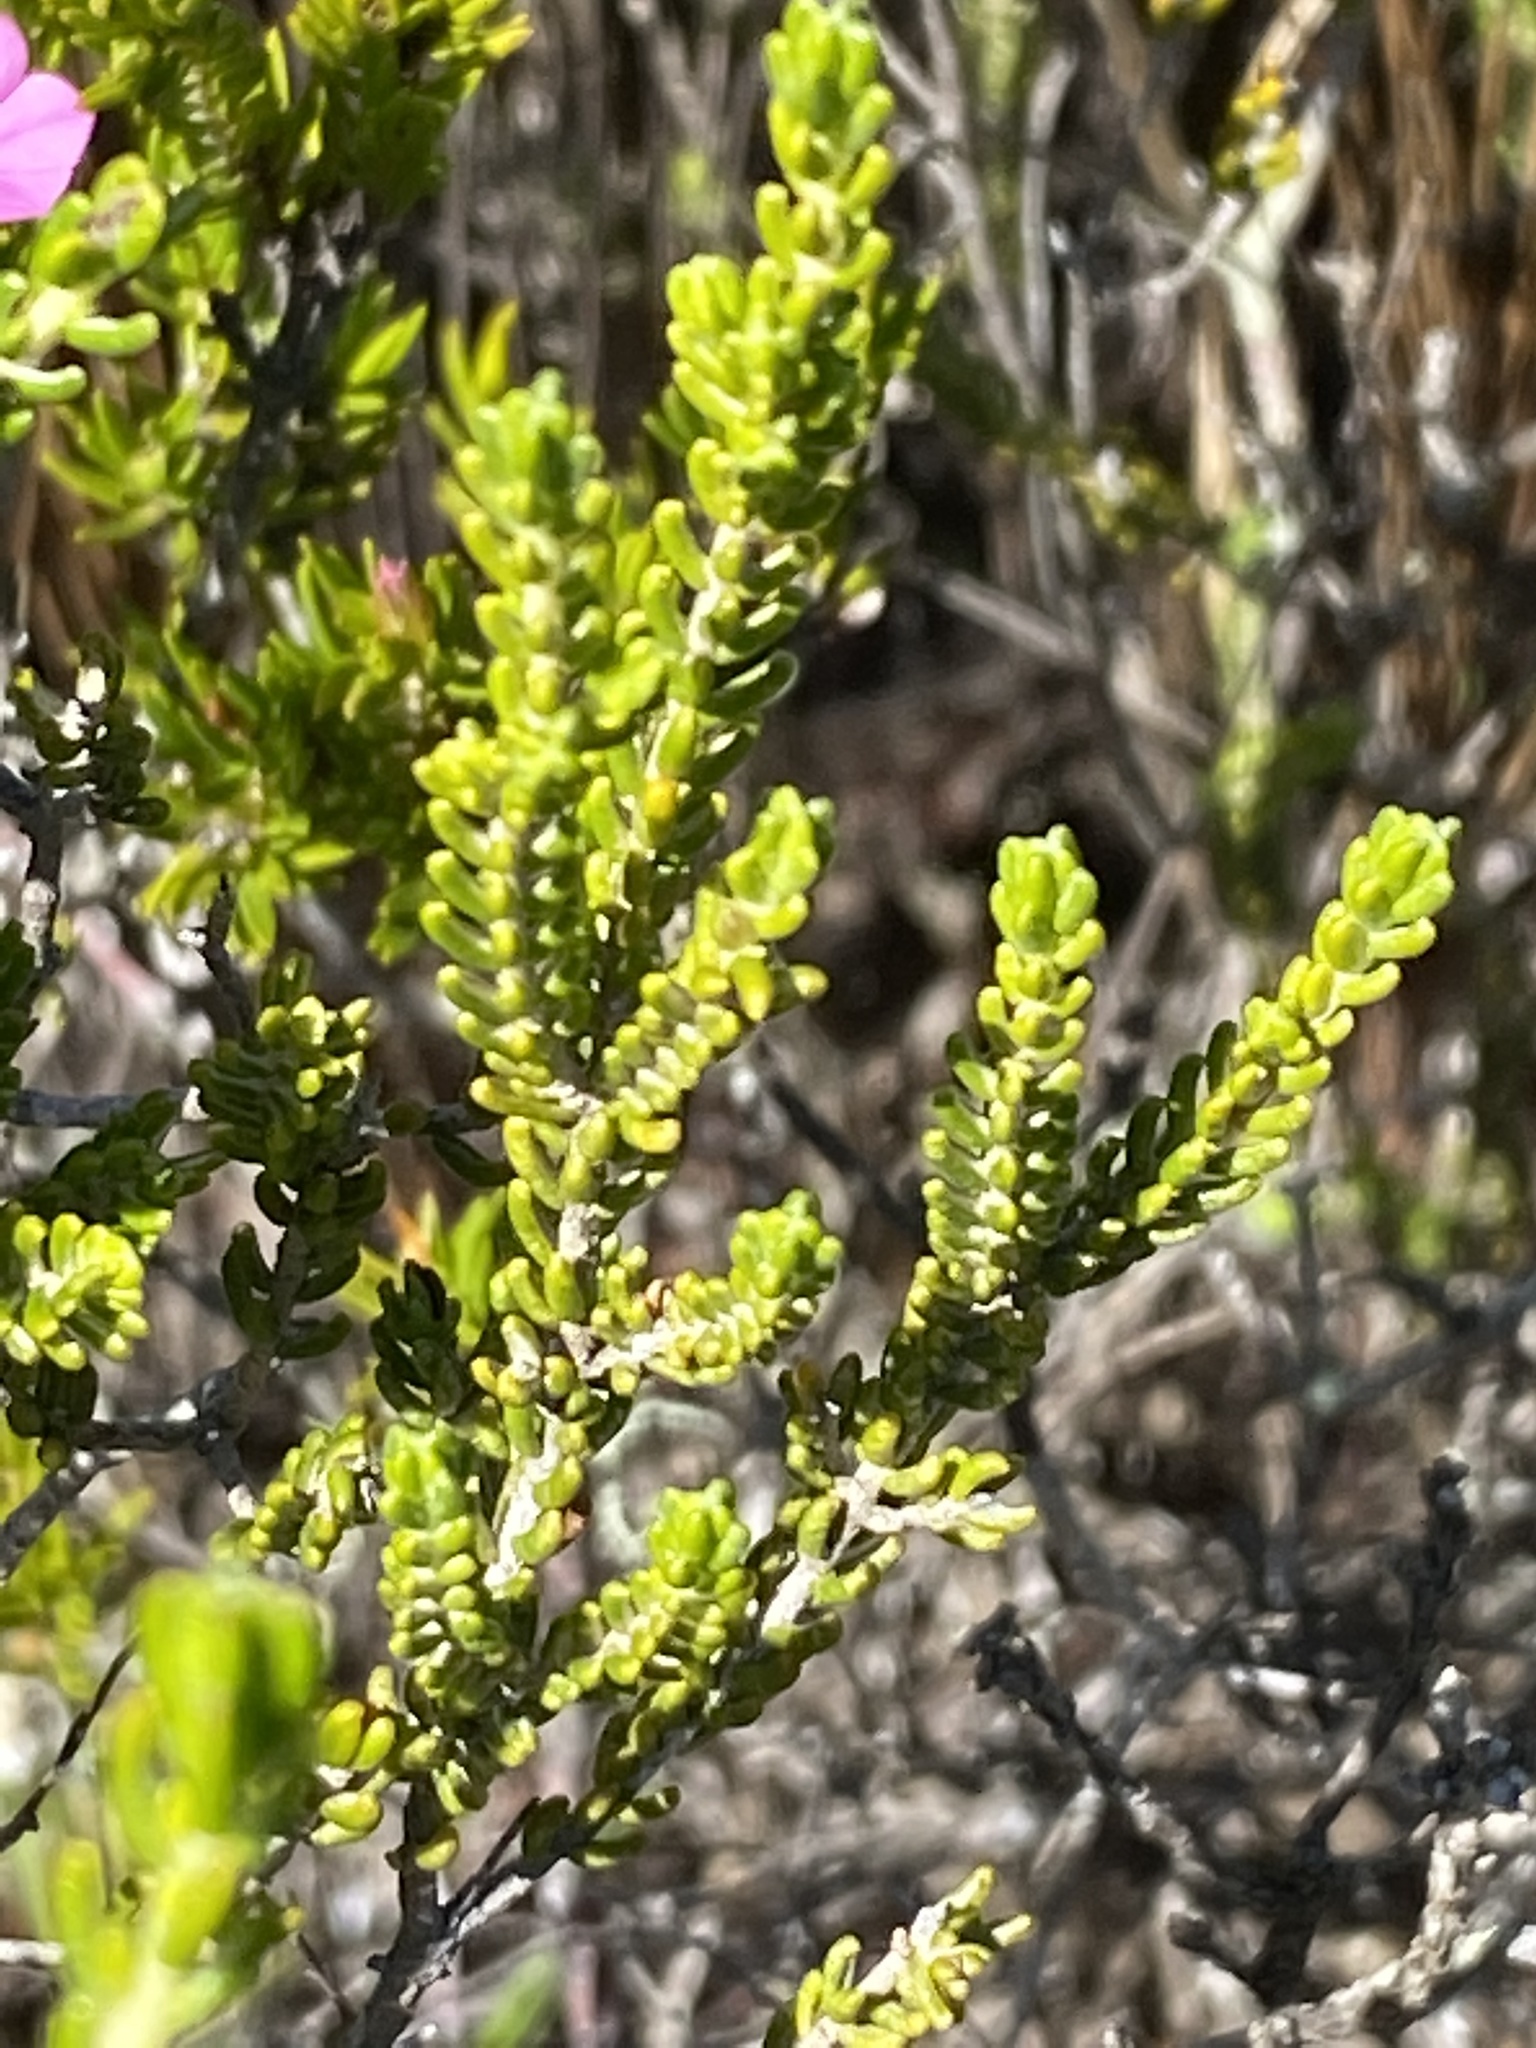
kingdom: Plantae
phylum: Tracheophyta
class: Magnoliopsida
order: Malvales
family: Thymelaeaceae
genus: Passerina
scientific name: Passerina galpinii
